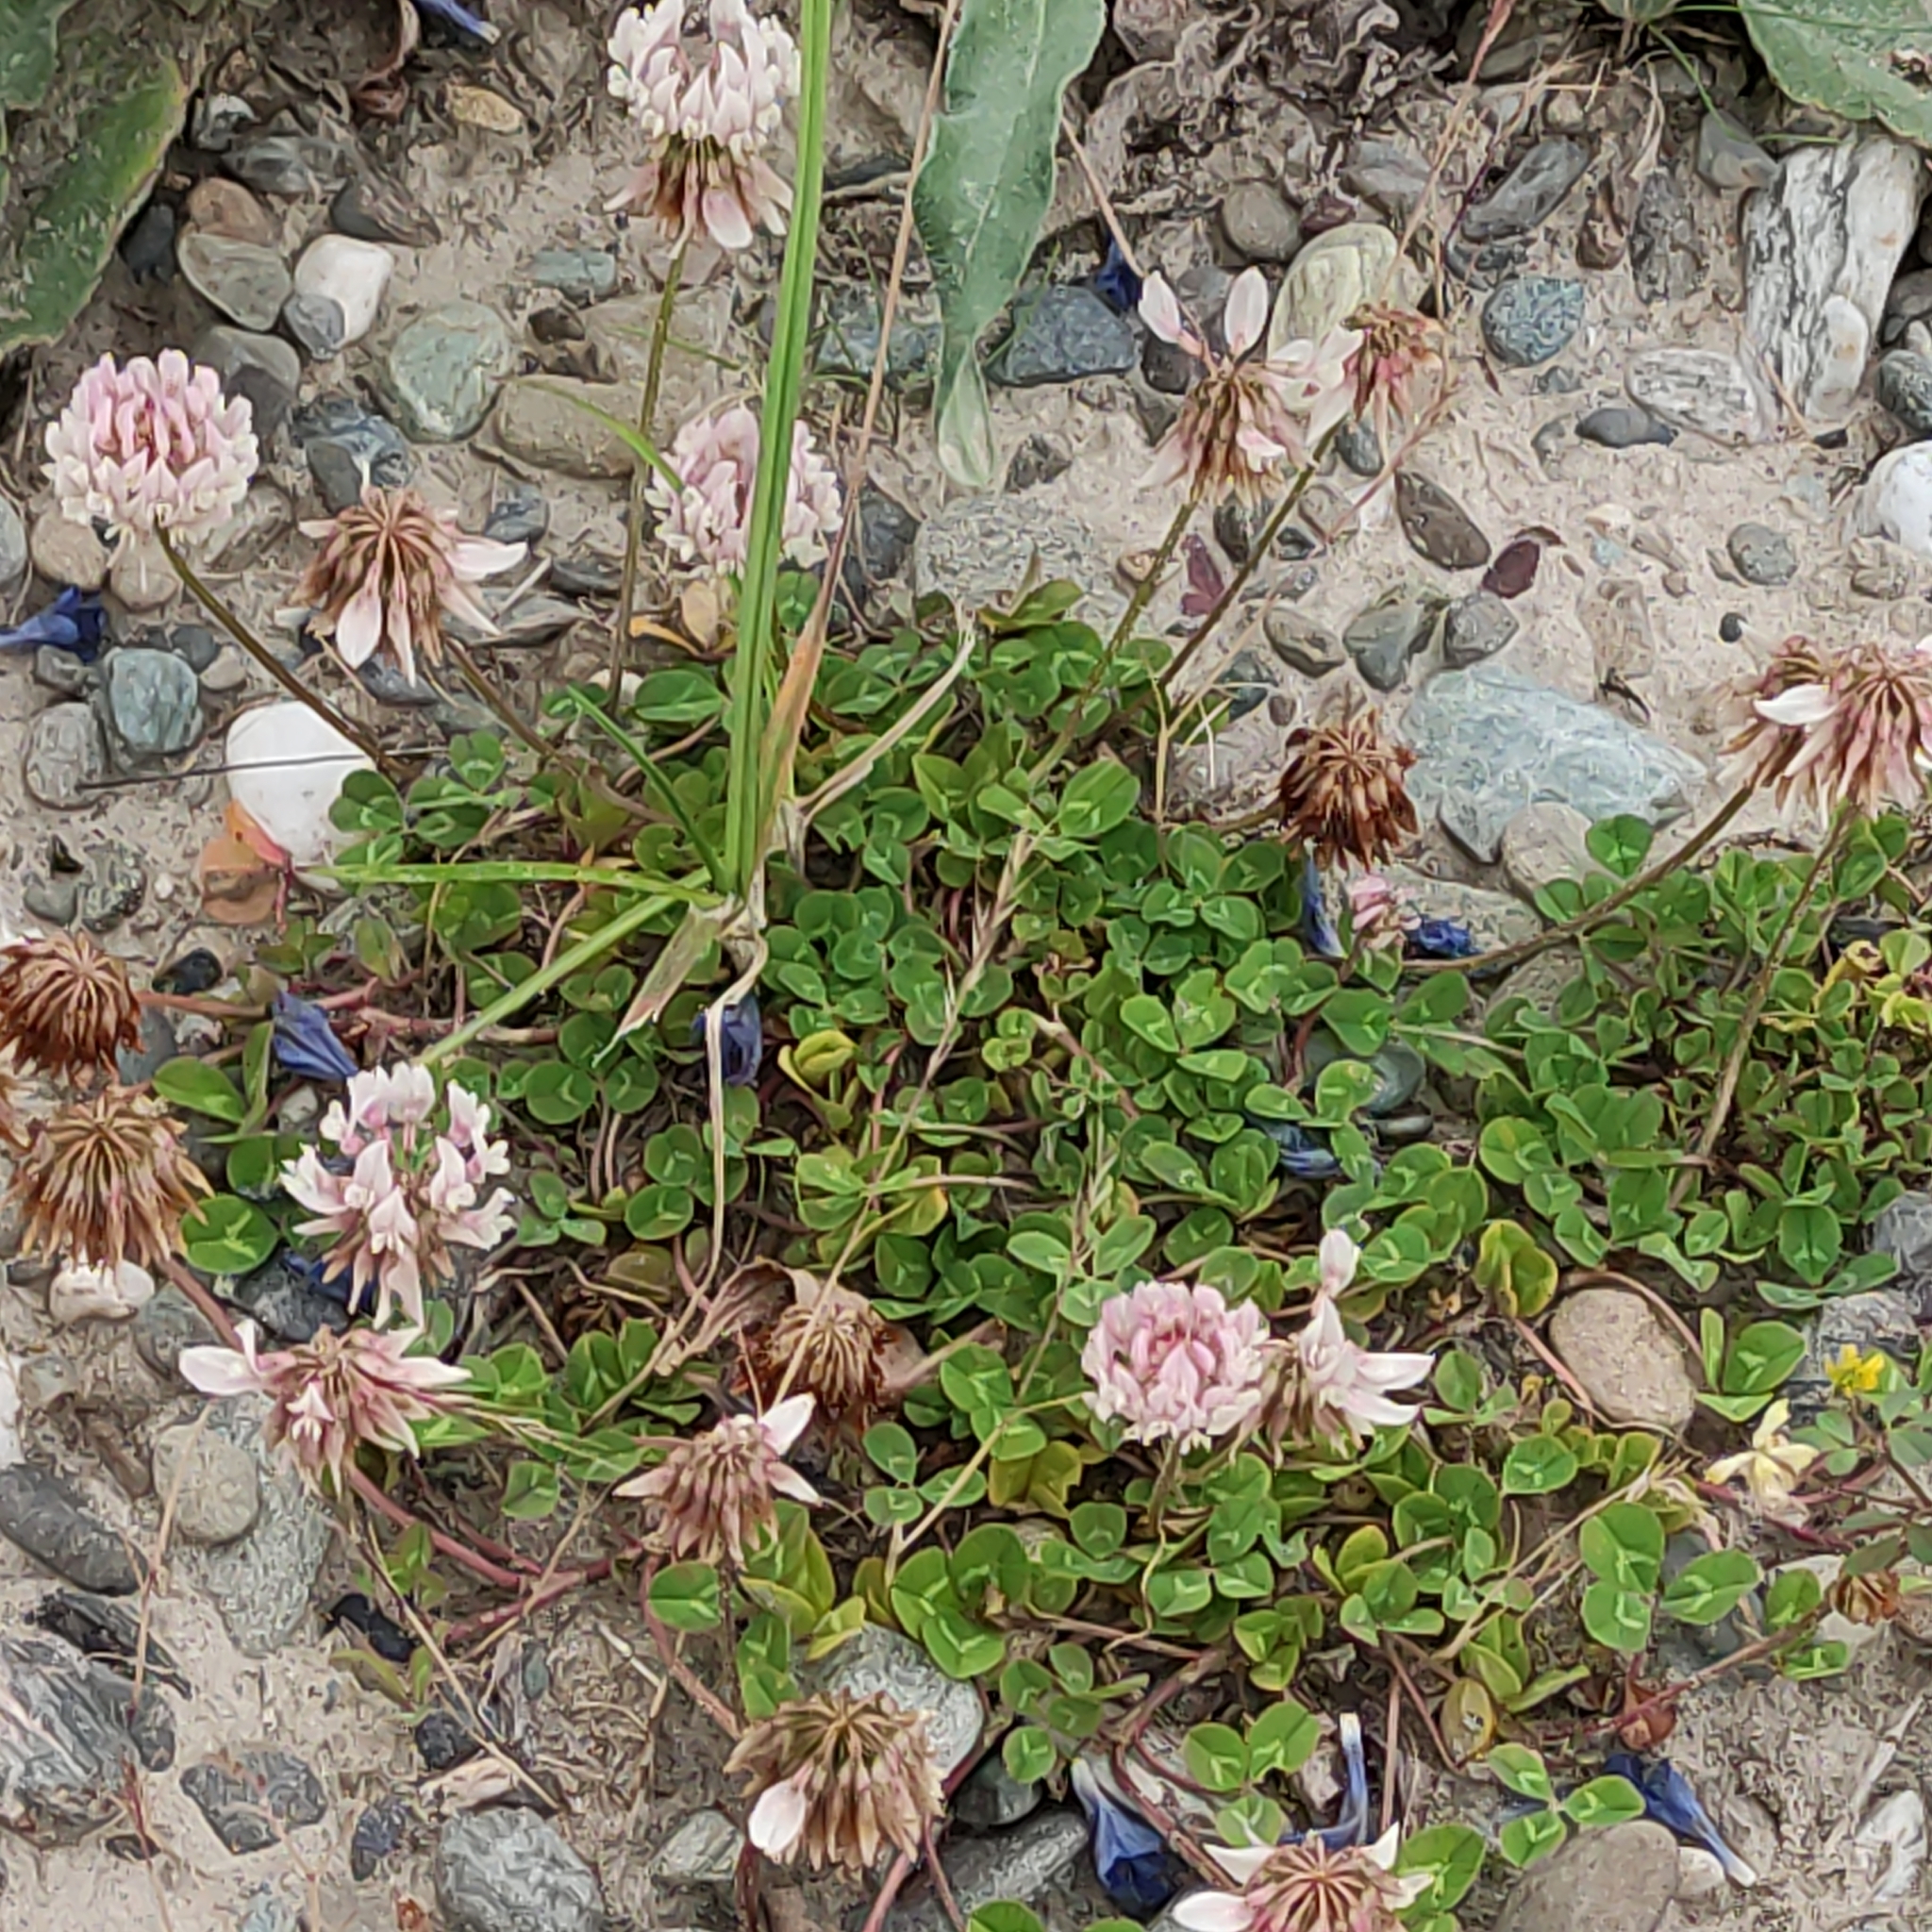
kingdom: Plantae
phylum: Tracheophyta
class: Magnoliopsida
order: Fabales
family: Fabaceae
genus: Trifolium
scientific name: Trifolium repens
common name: White clover
